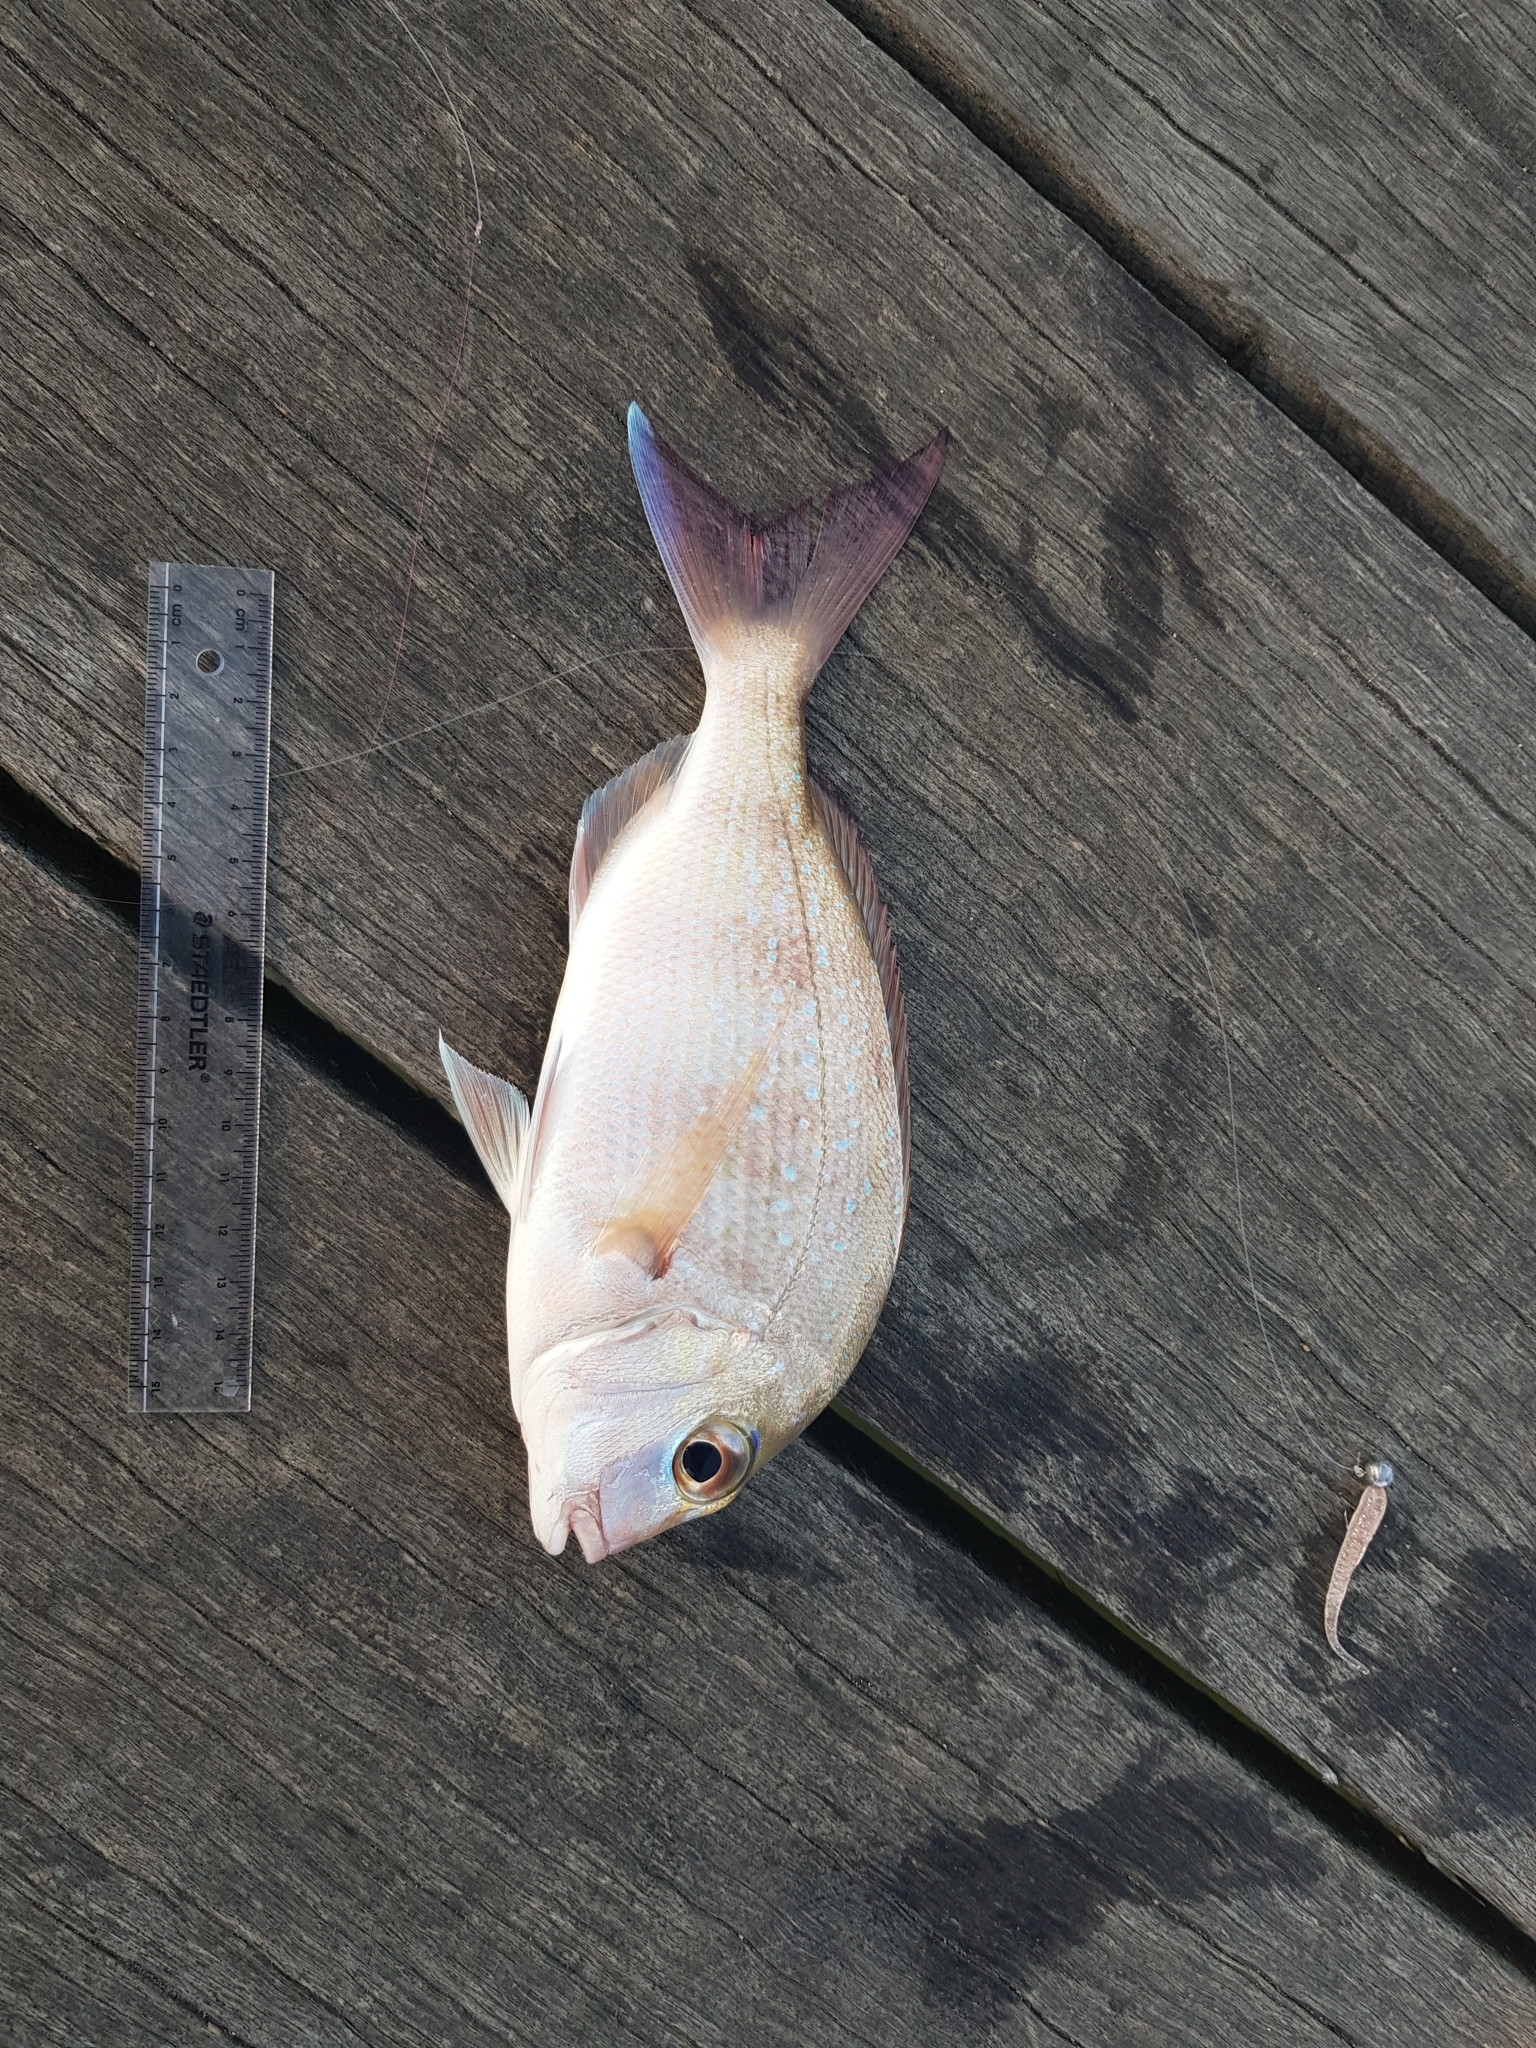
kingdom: Animalia
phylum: Chordata
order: Perciformes
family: Sparidae
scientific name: Sparidae
